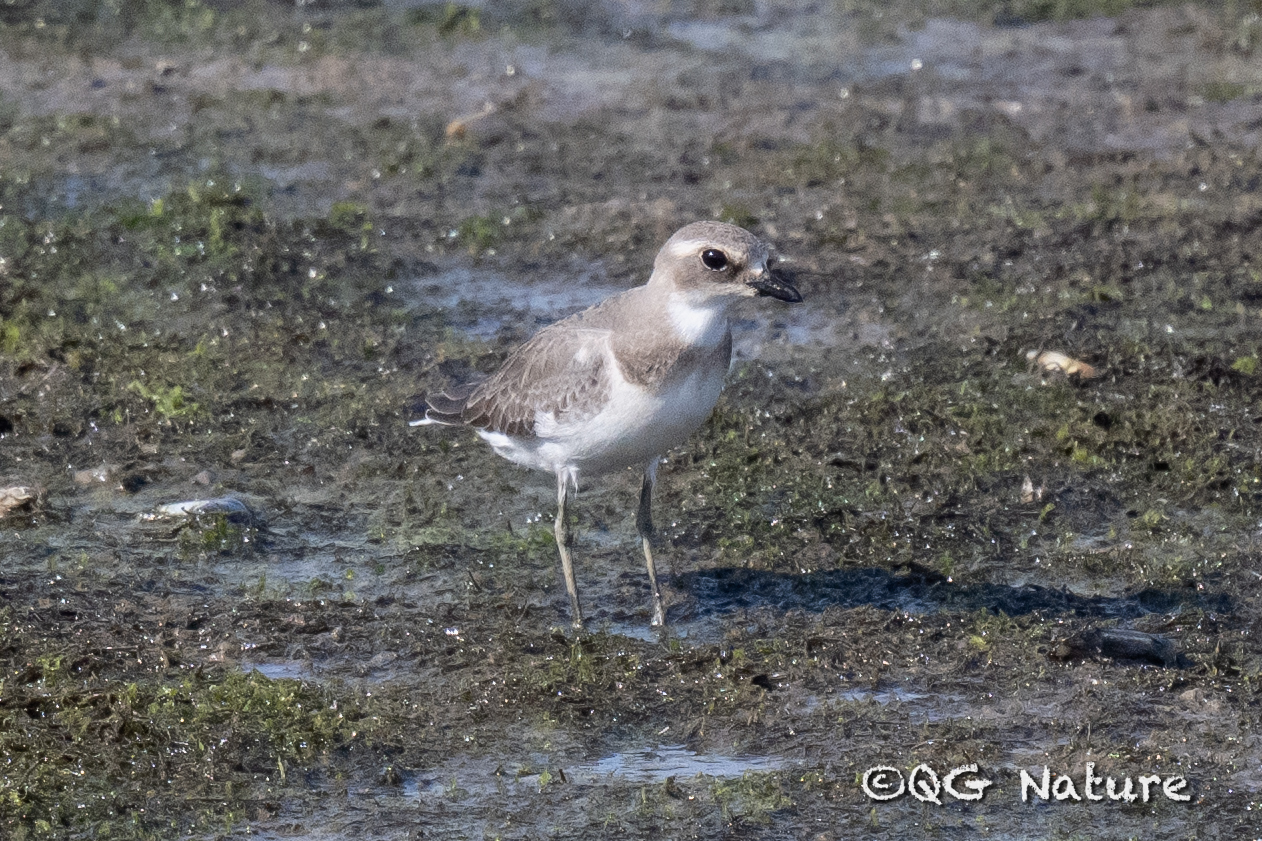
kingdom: Animalia
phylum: Chordata
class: Aves
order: Charadriiformes
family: Charadriidae
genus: Charadrius
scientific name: Charadrius leschenaultii
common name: Greater sand plover
